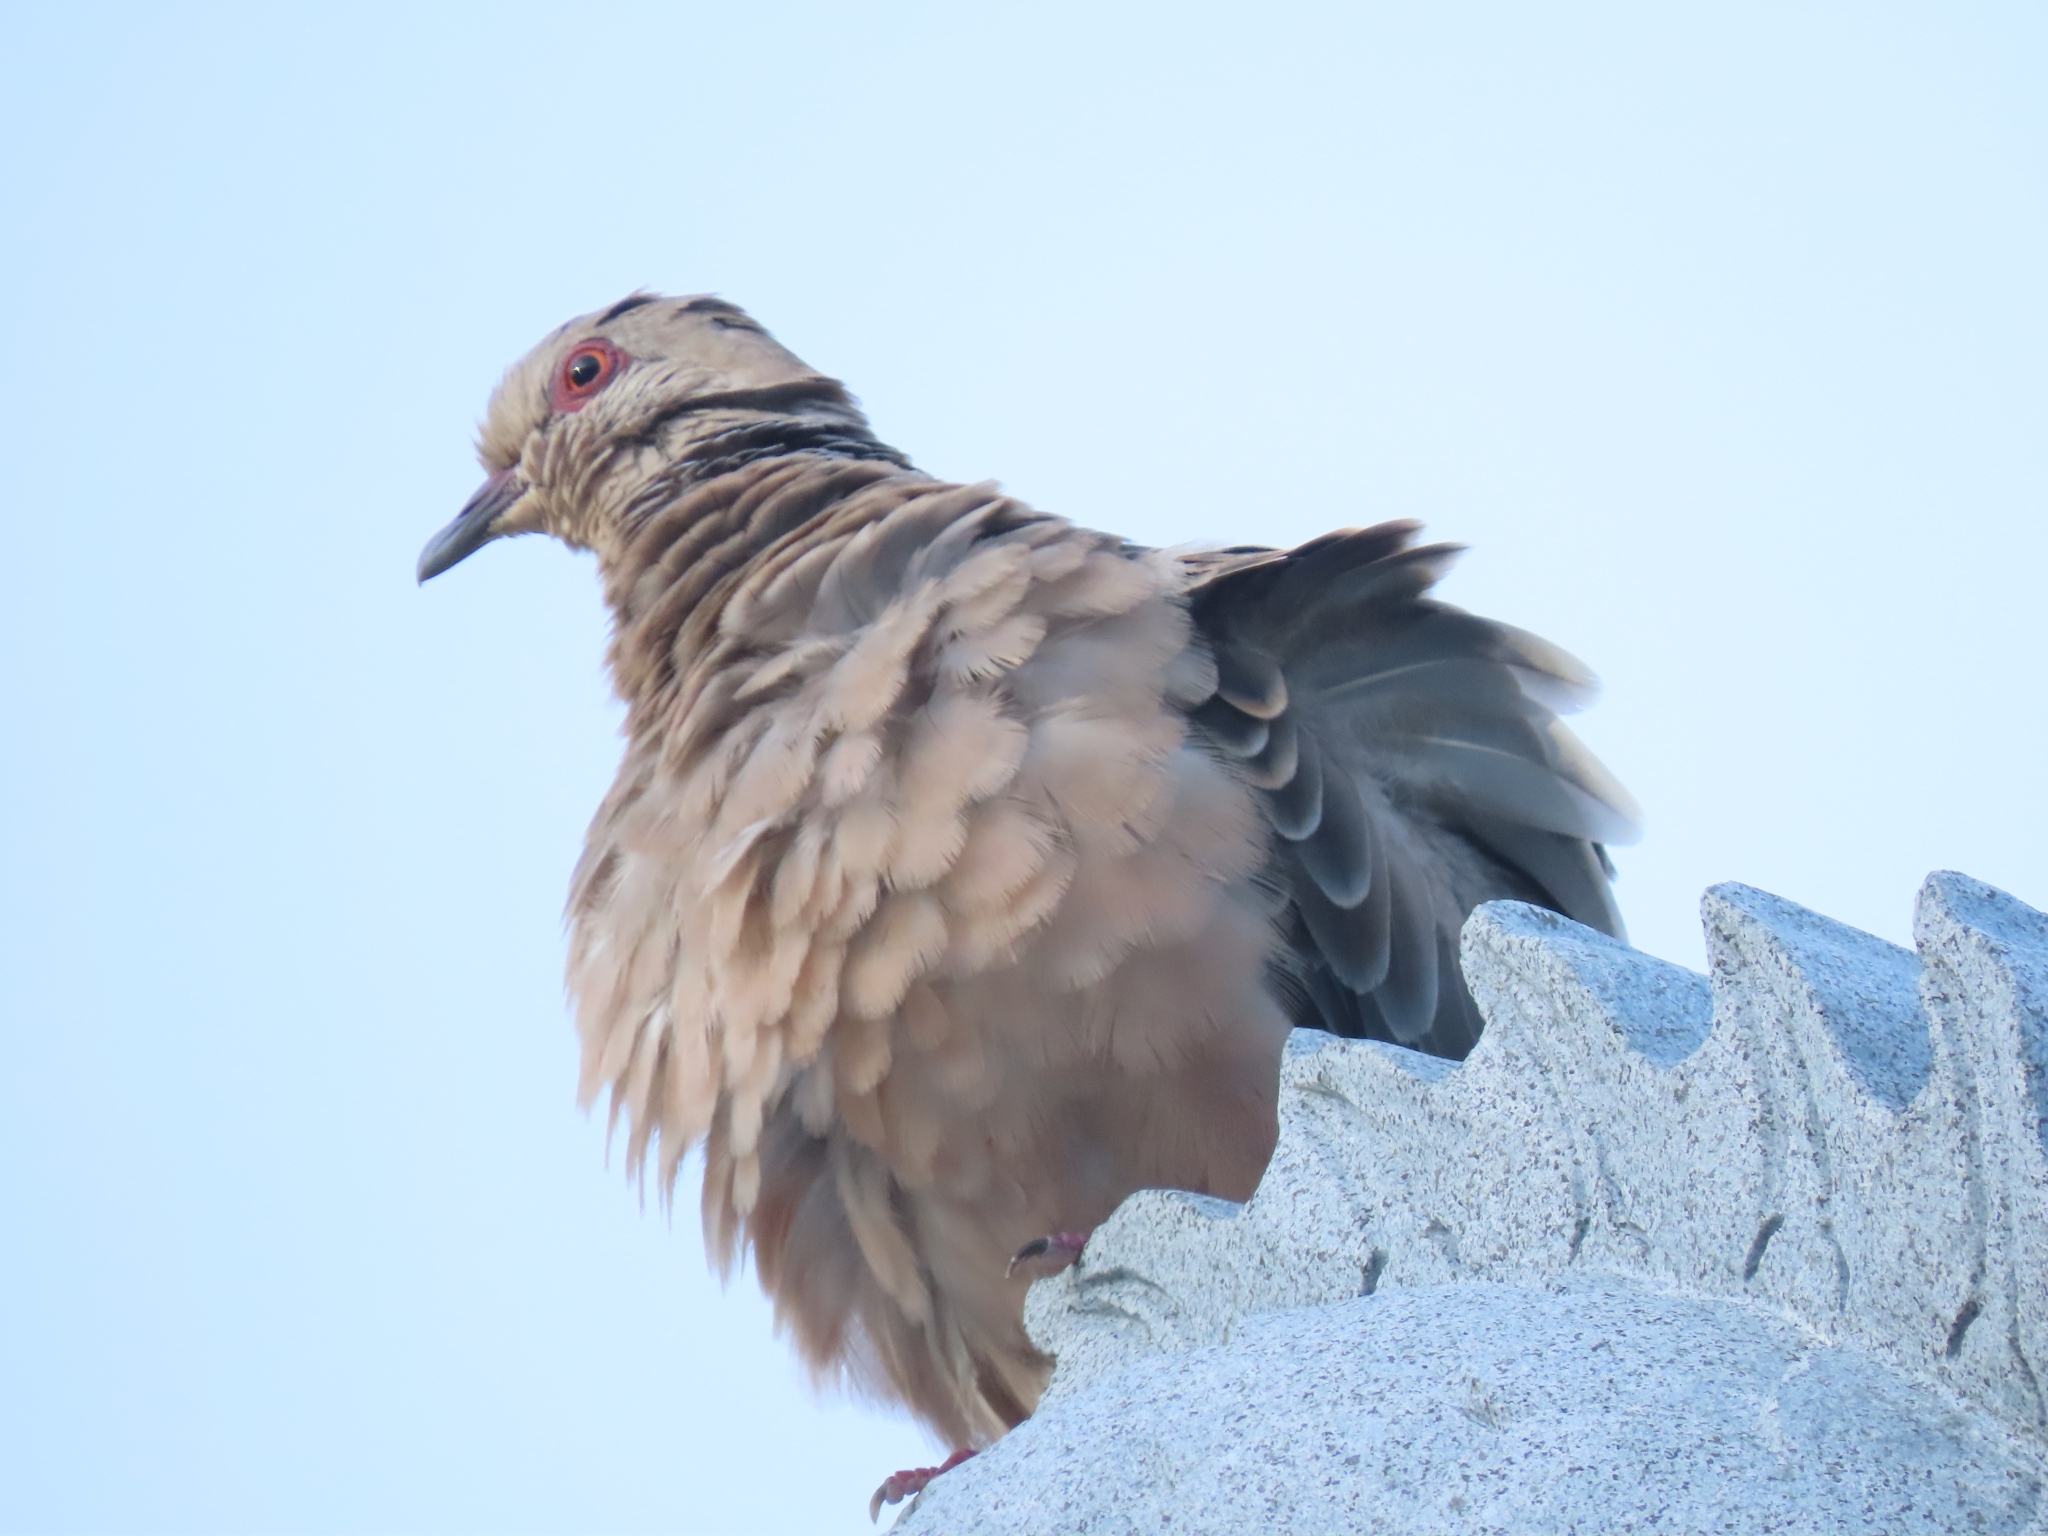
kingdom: Animalia
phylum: Chordata
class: Aves
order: Columbiformes
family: Columbidae
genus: Streptopelia
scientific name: Streptopelia orientalis
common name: Oriental turtle dove
